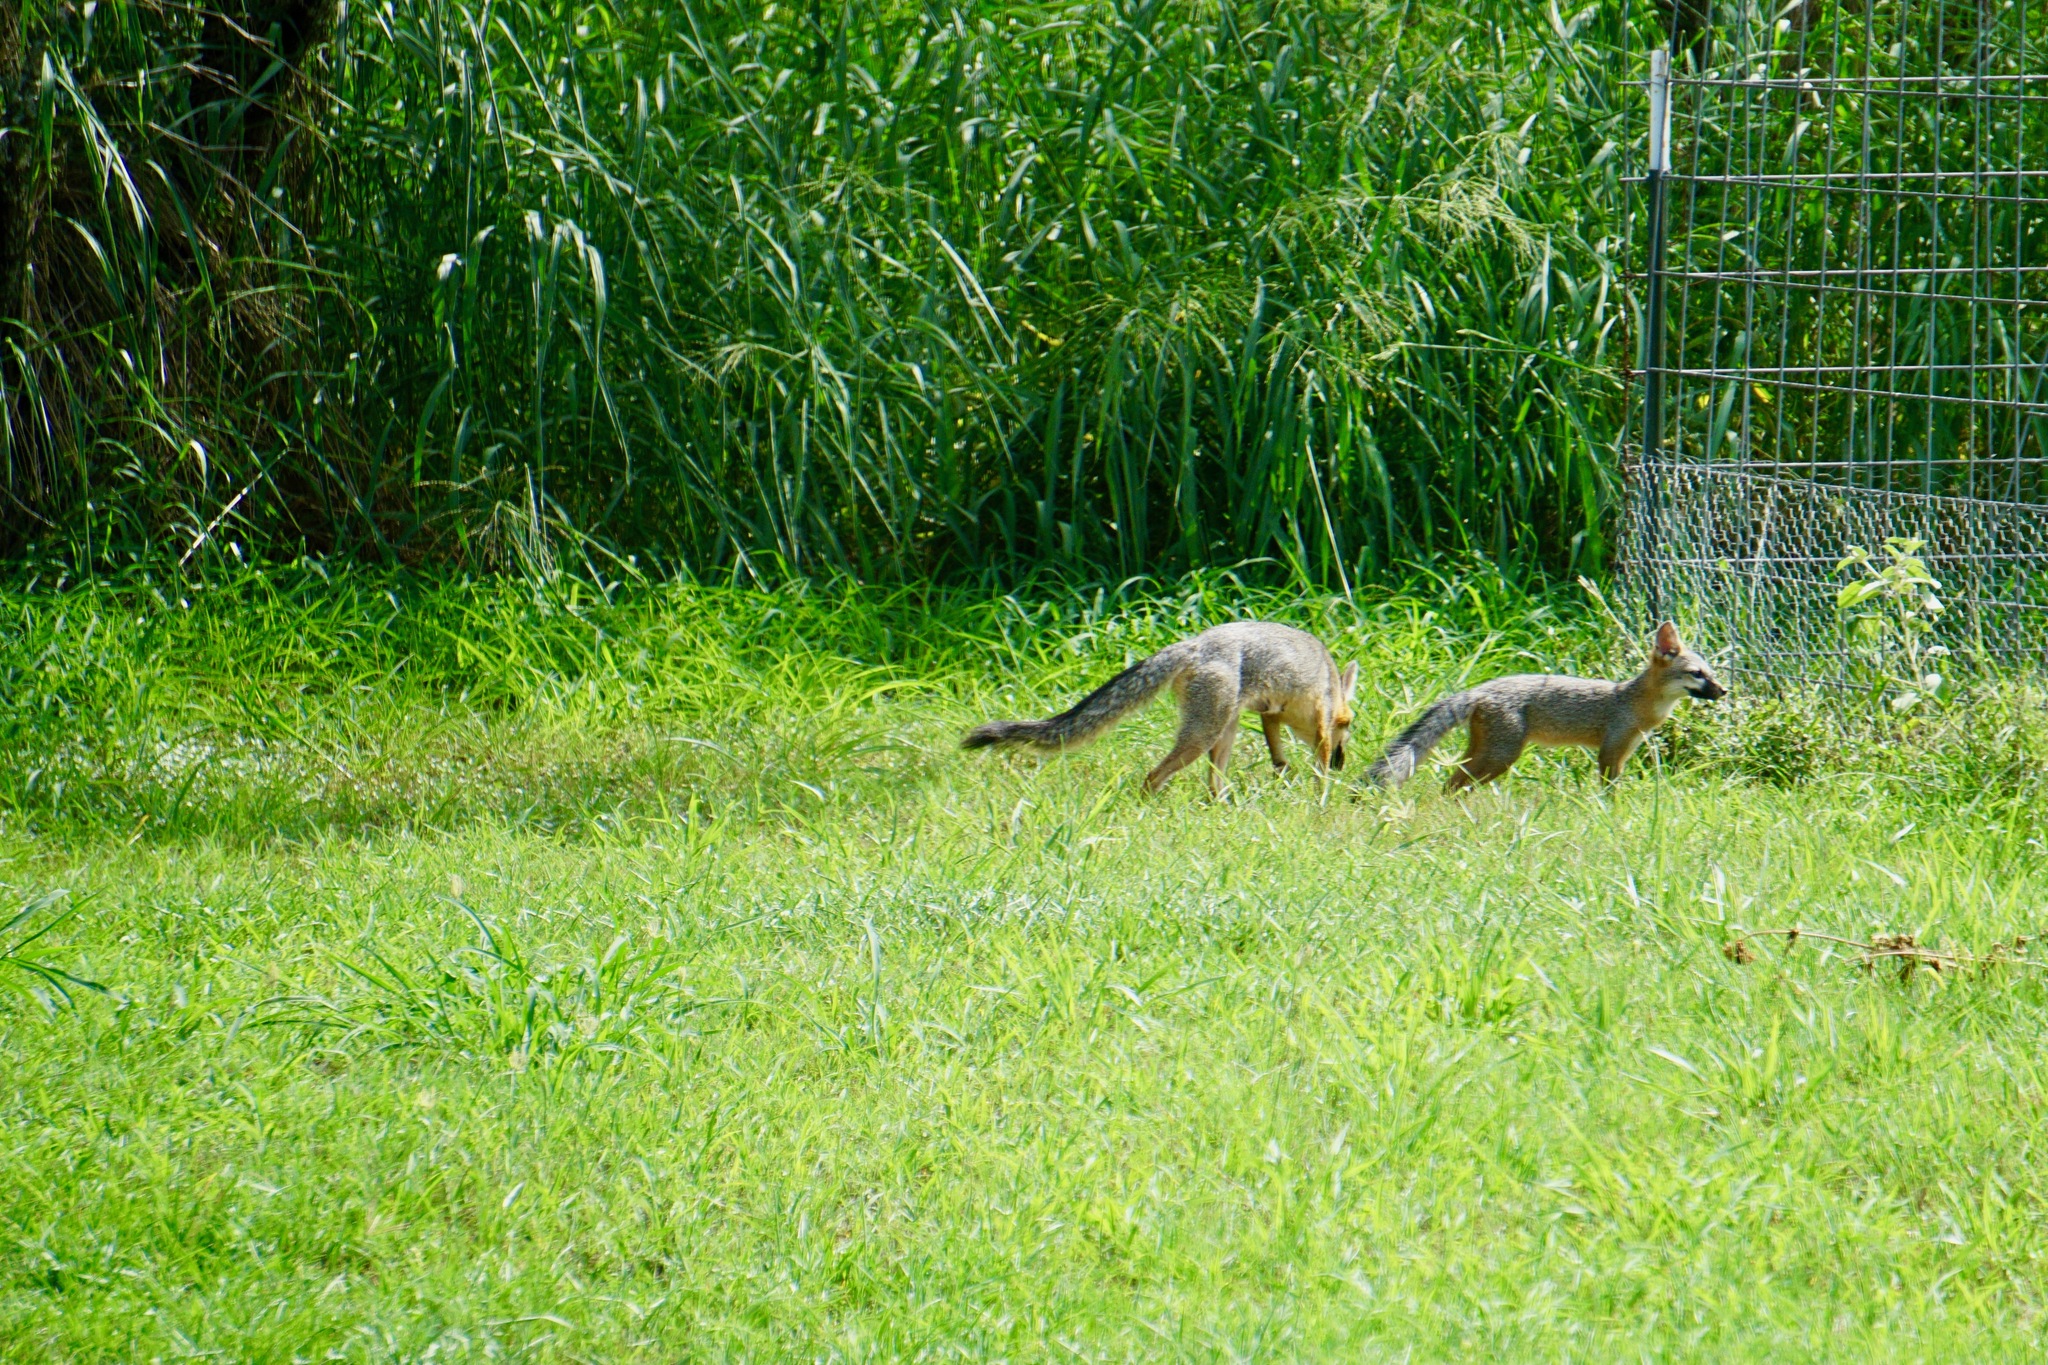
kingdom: Animalia
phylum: Chordata
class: Mammalia
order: Carnivora
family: Canidae
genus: Urocyon
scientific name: Urocyon cinereoargenteus
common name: Gray fox
